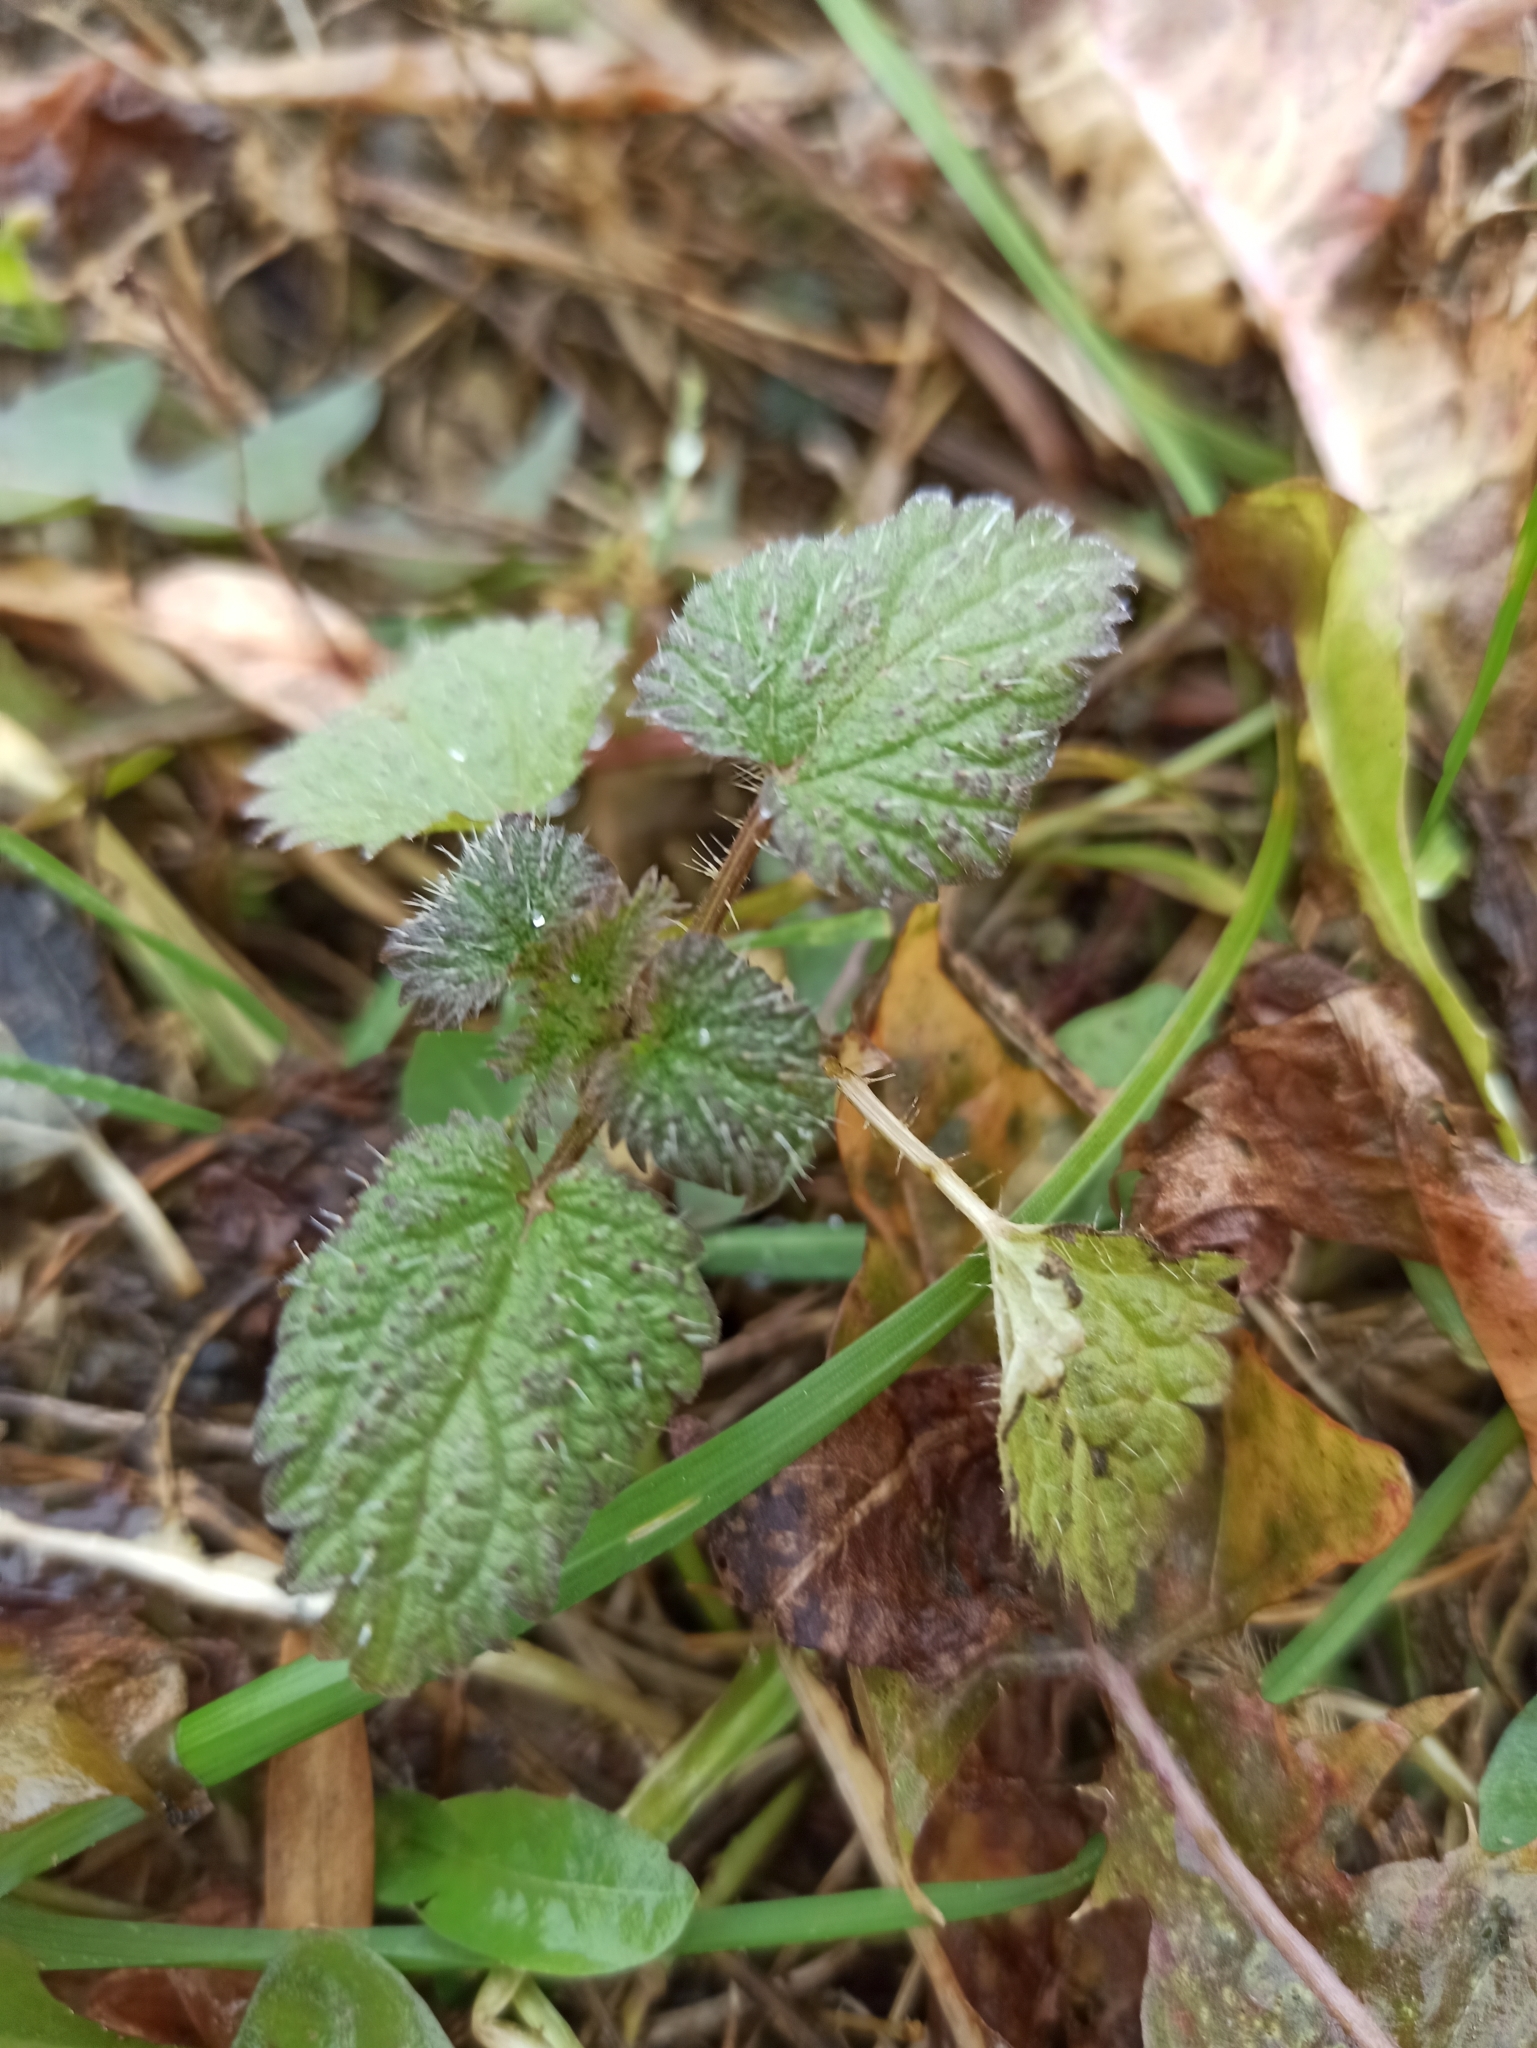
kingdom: Plantae
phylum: Tracheophyta
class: Magnoliopsida
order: Rosales
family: Urticaceae
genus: Urtica
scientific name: Urtica dioica
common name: Common nettle
